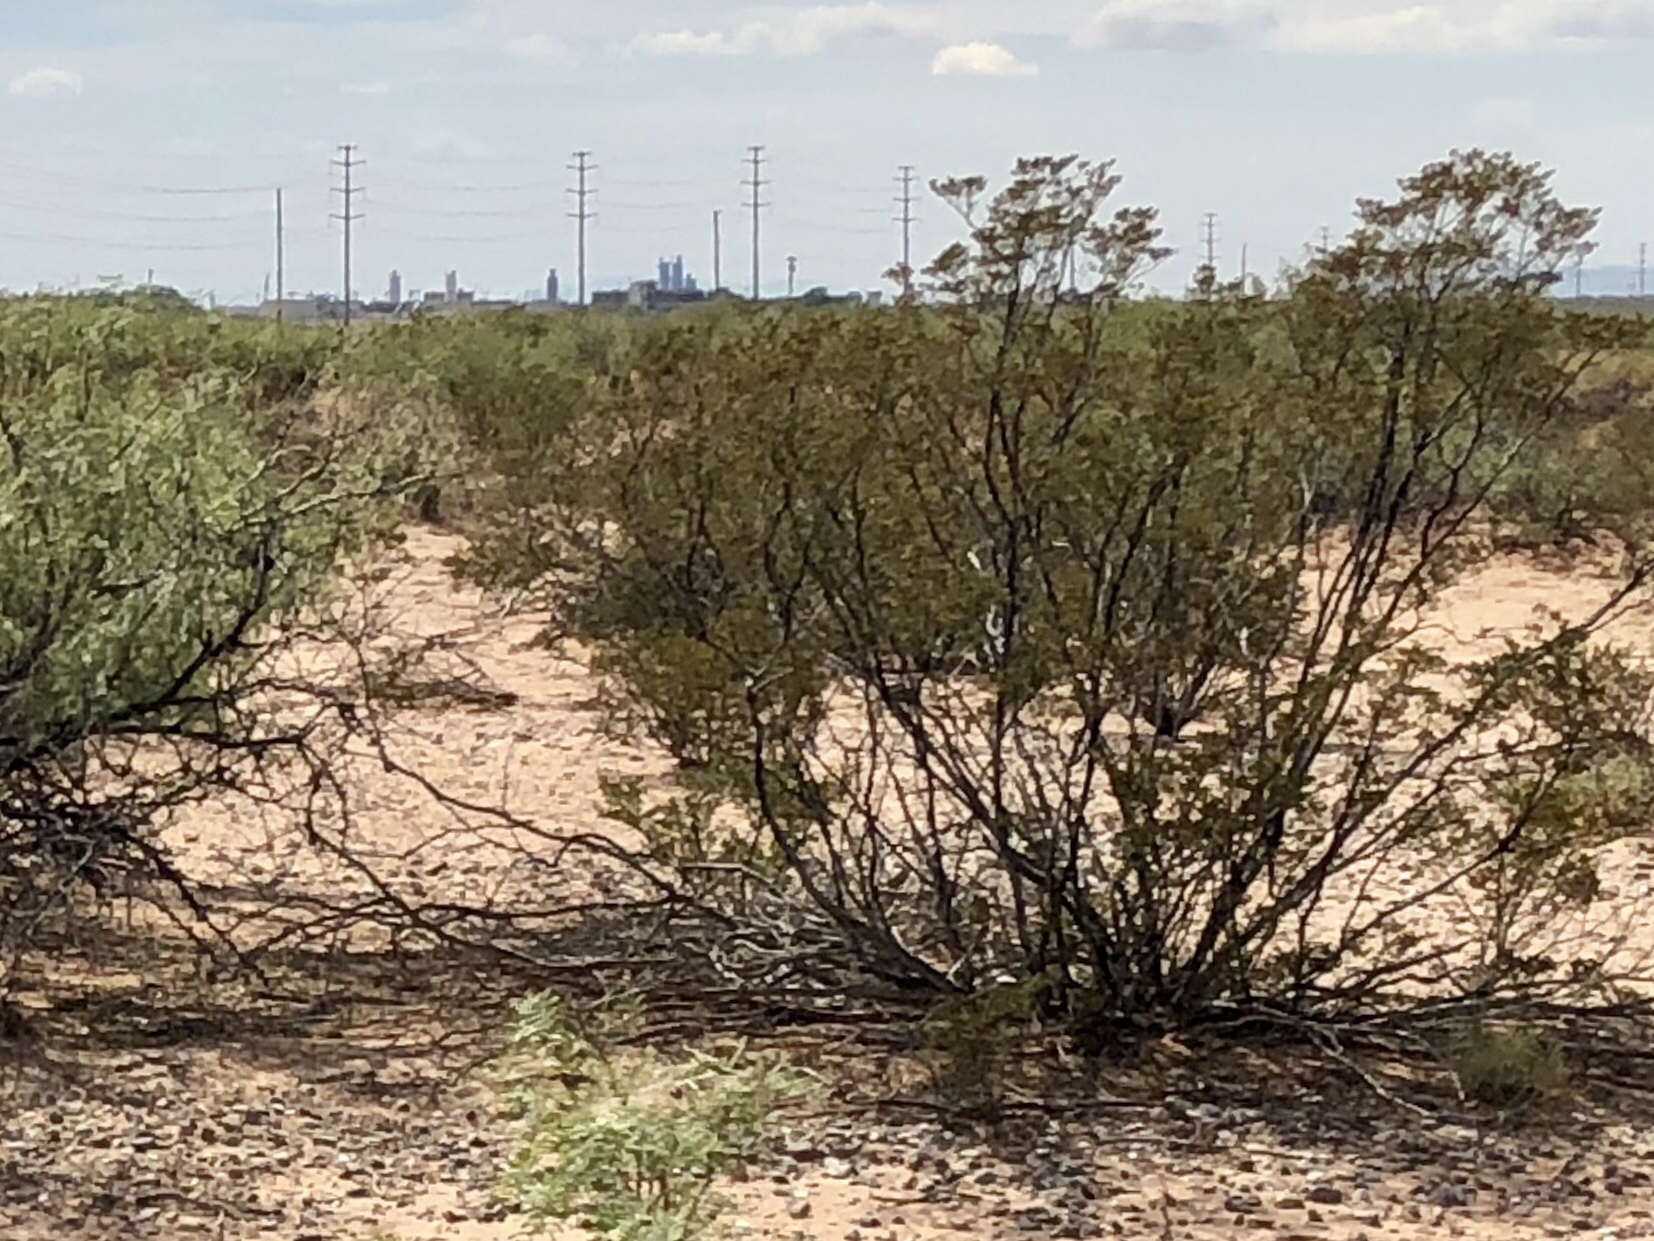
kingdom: Plantae
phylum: Tracheophyta
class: Magnoliopsida
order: Zygophyllales
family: Zygophyllaceae
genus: Larrea
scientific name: Larrea tridentata
